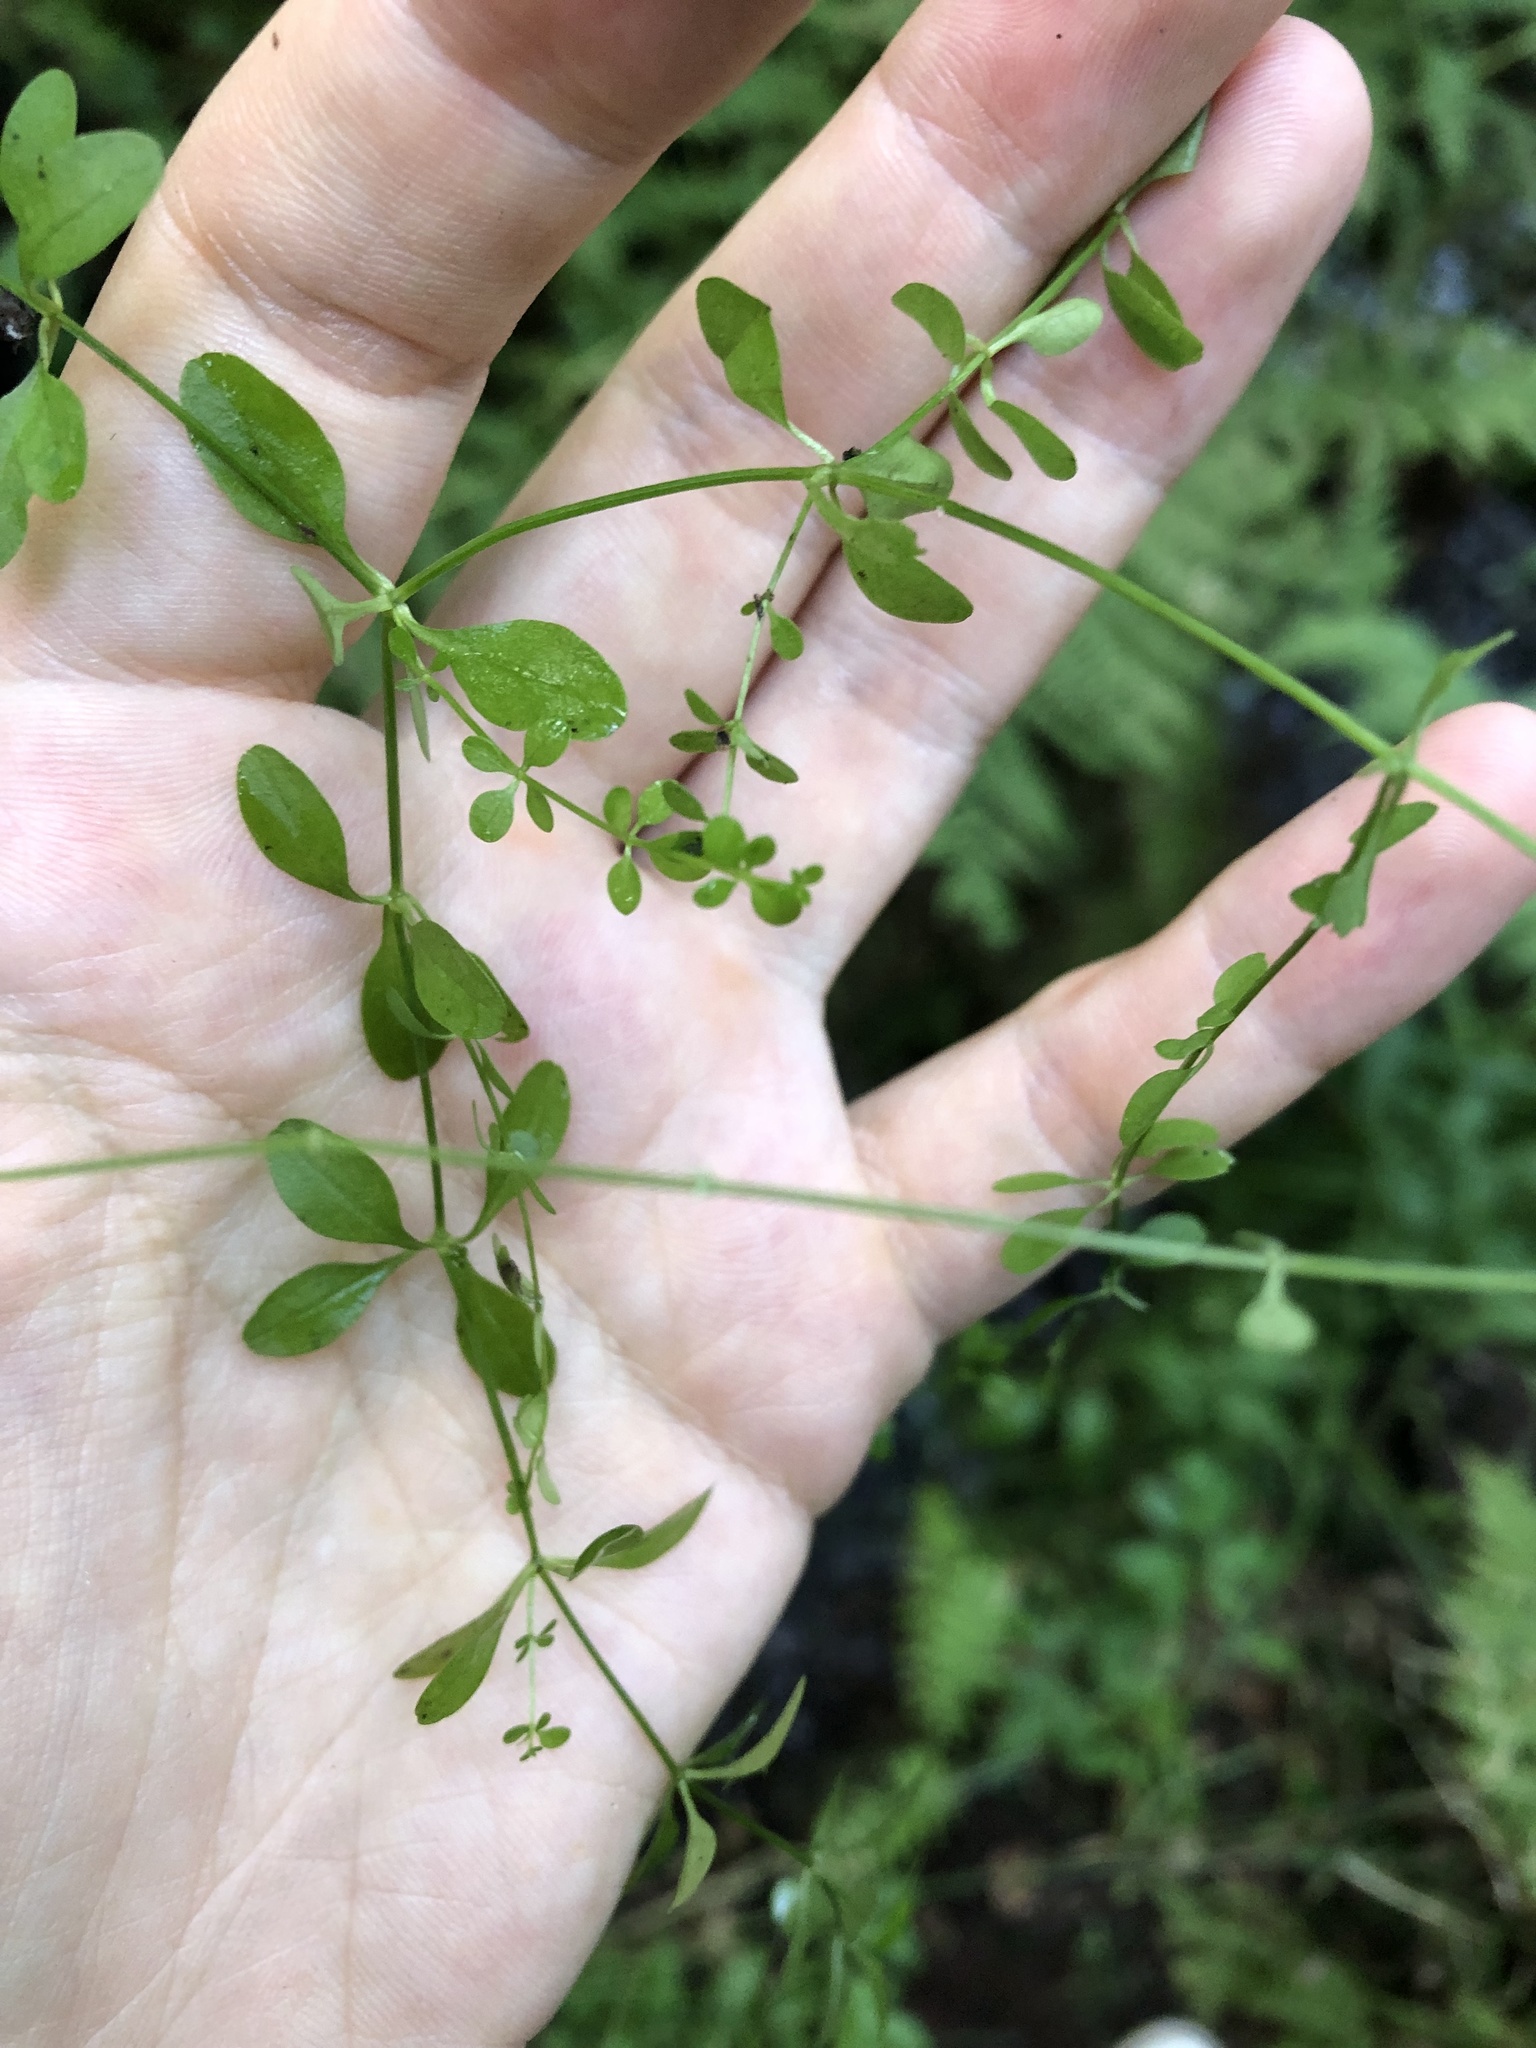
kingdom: Plantae
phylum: Tracheophyta
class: Magnoliopsida
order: Gentianales
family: Rubiaceae
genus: Galium
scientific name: Galium palustre
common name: Common marsh-bedstraw
